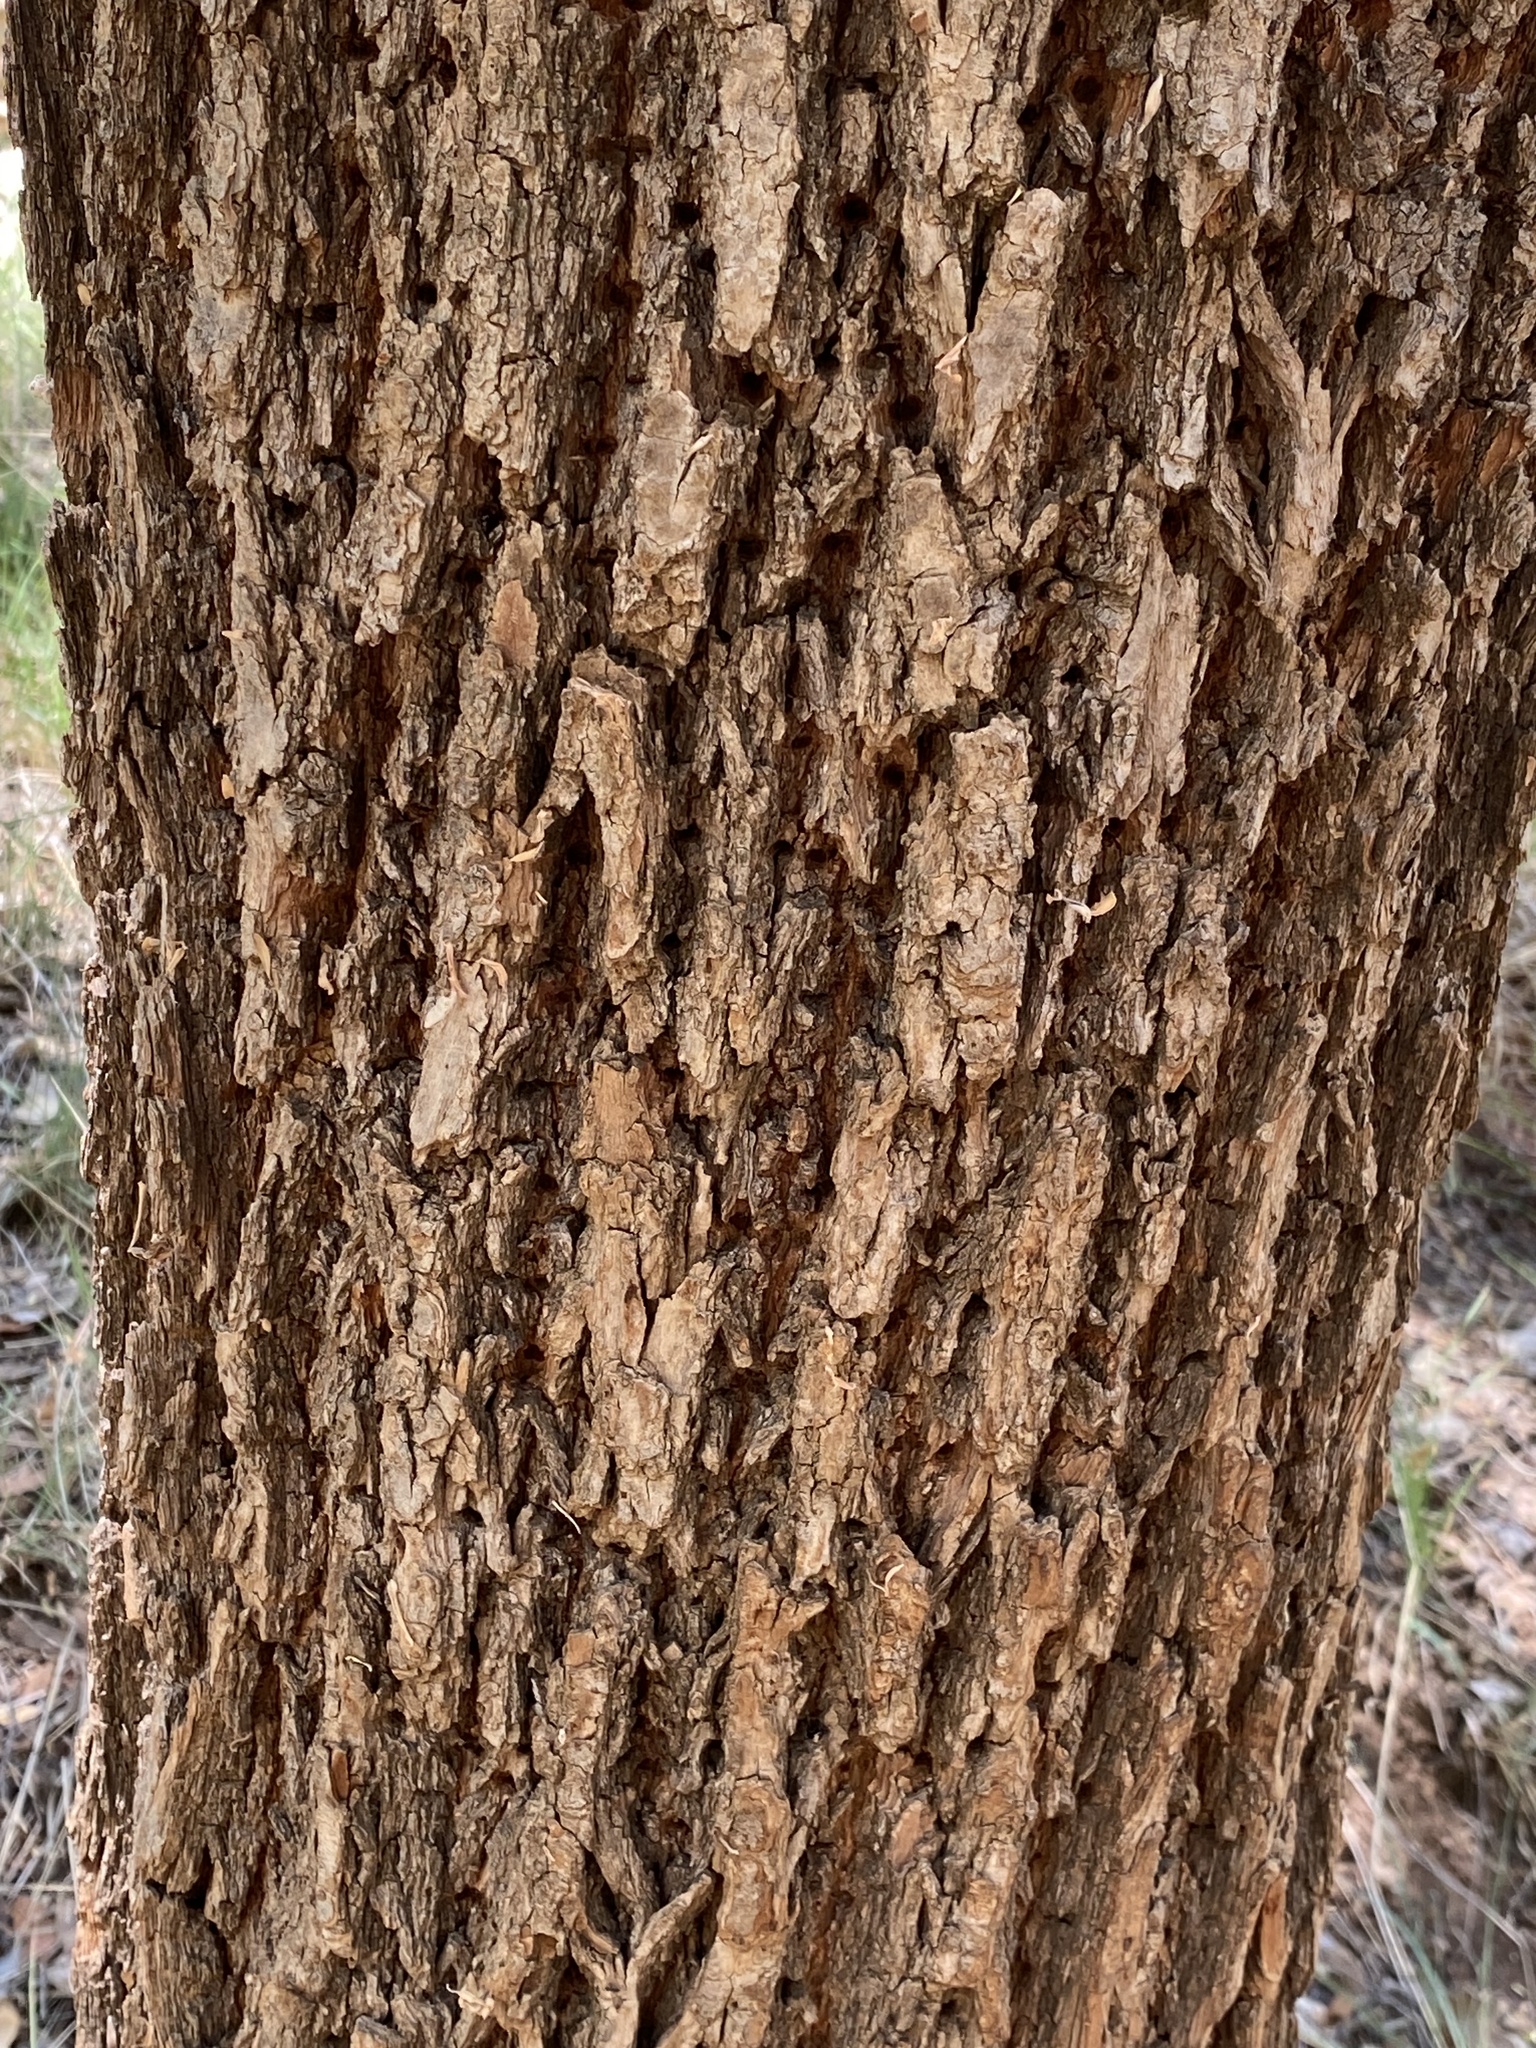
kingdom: Plantae
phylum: Tracheophyta
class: Magnoliopsida
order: Malpighiales
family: Salicaceae
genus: Salix
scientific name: Salix taxifolia
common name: Yew-leaf willow
